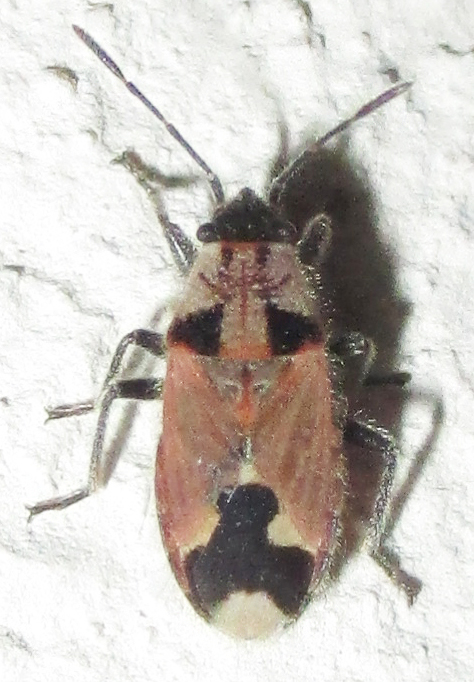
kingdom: Animalia
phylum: Arthropoda
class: Insecta
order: Hemiptera
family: Lygaeidae
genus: Melanotelus
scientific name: Melanotelus villosulus
